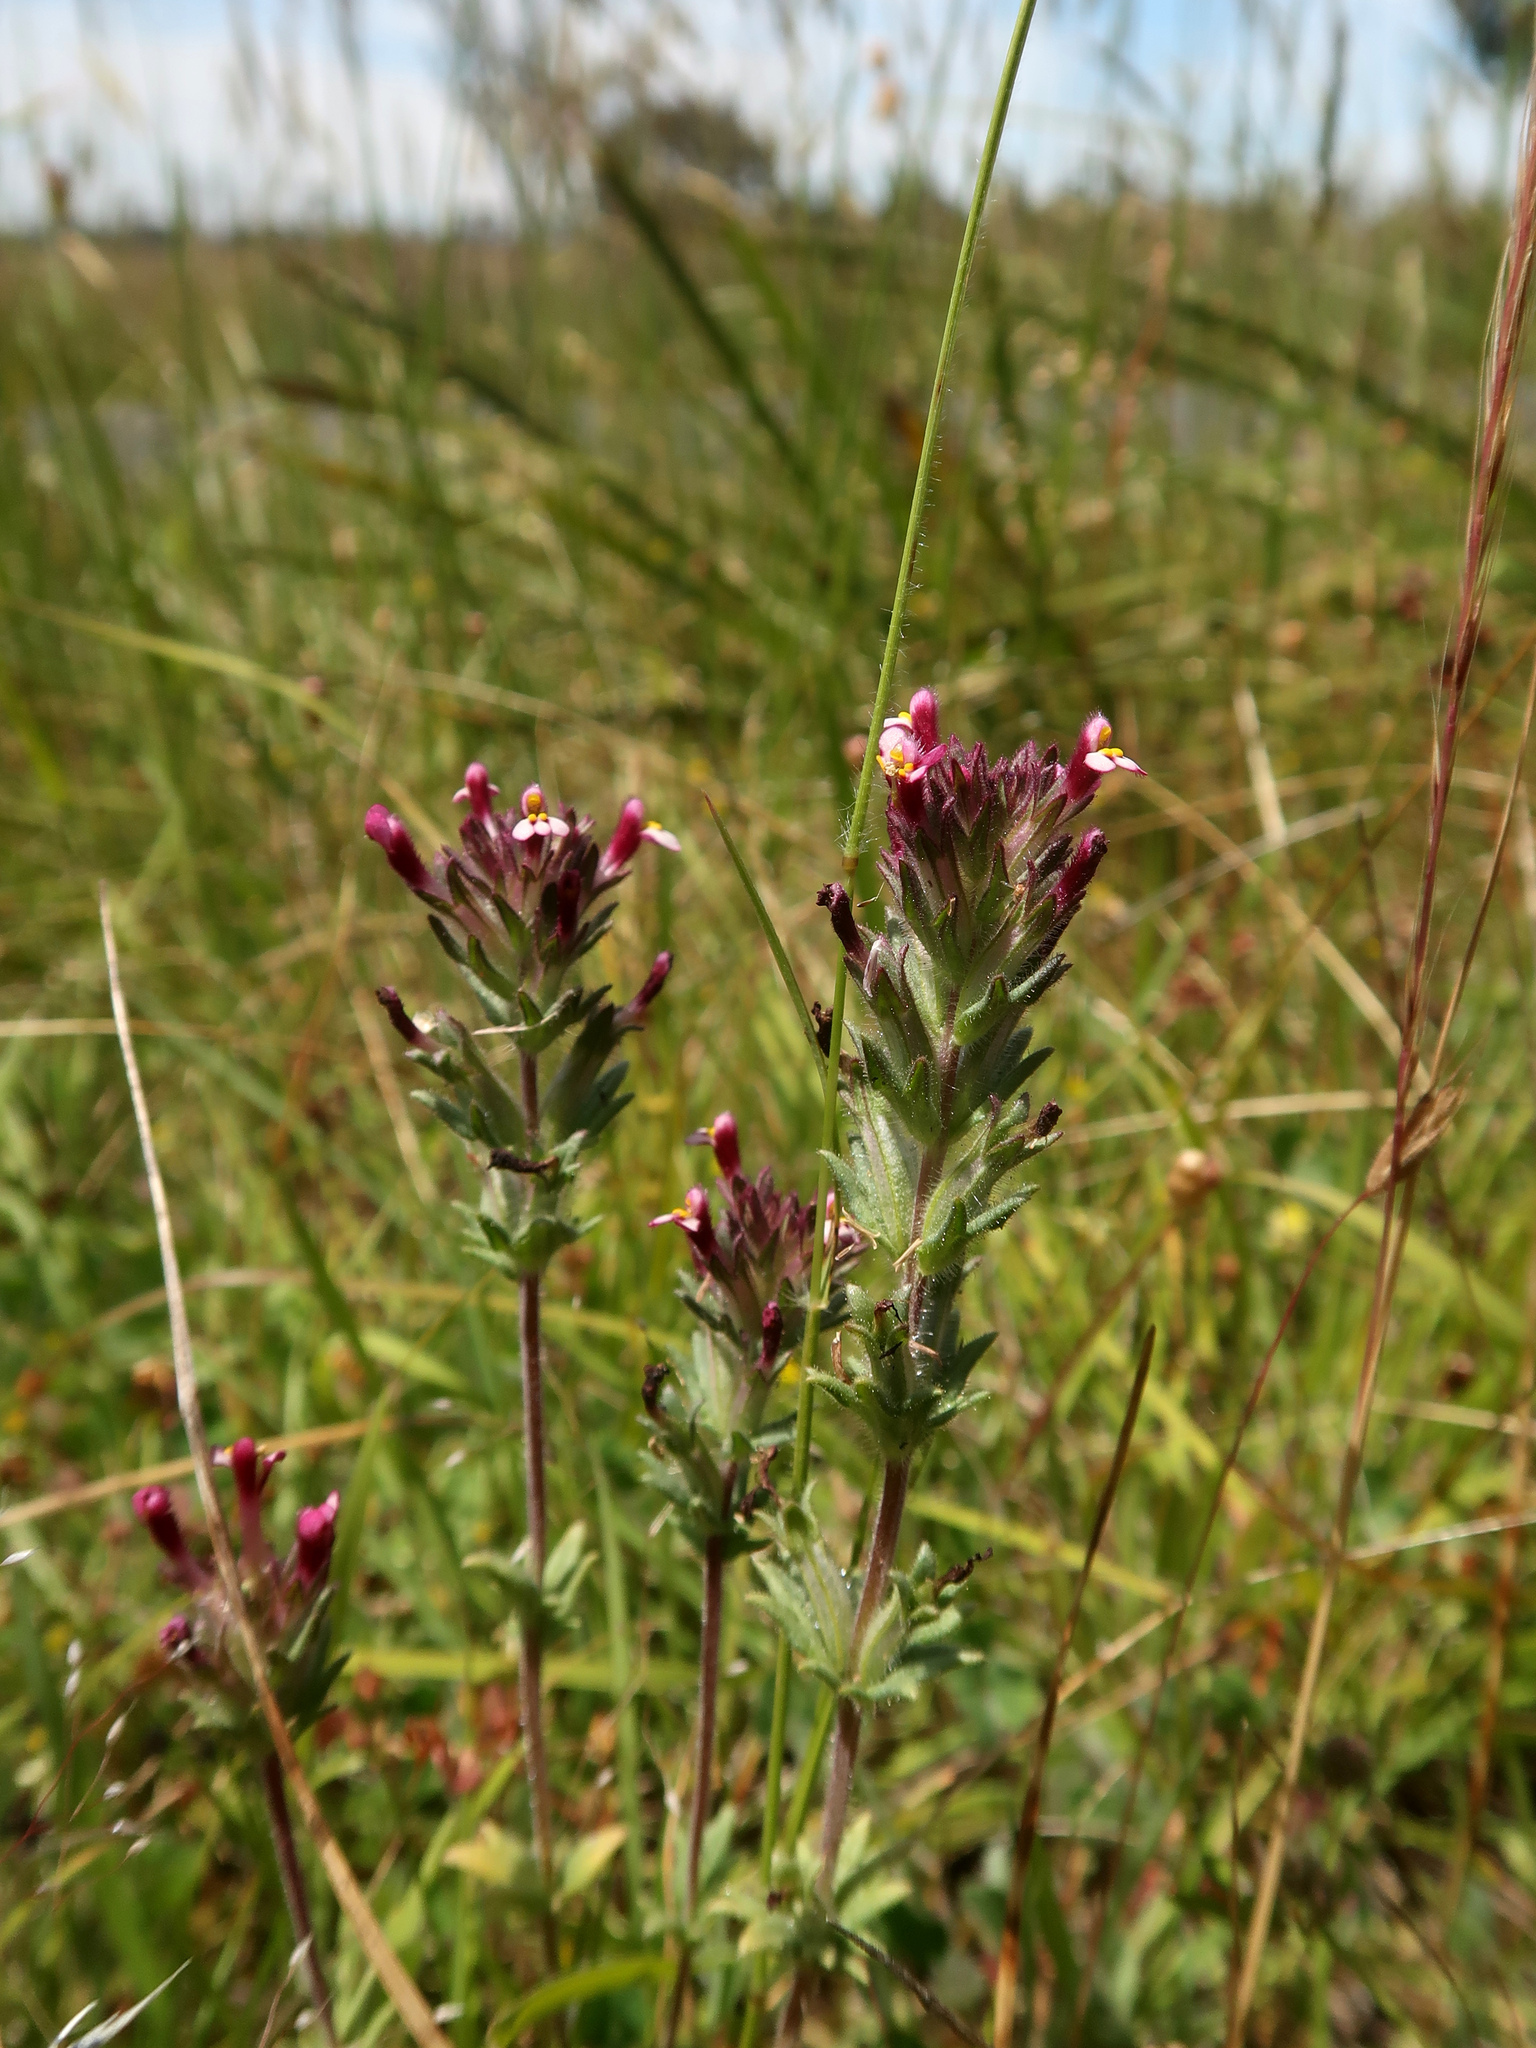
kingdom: Plantae
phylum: Tracheophyta
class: Magnoliopsida
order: Lamiales
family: Orobanchaceae
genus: Parentucellia
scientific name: Parentucellia latifolia
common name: Broadleaf glandweed
